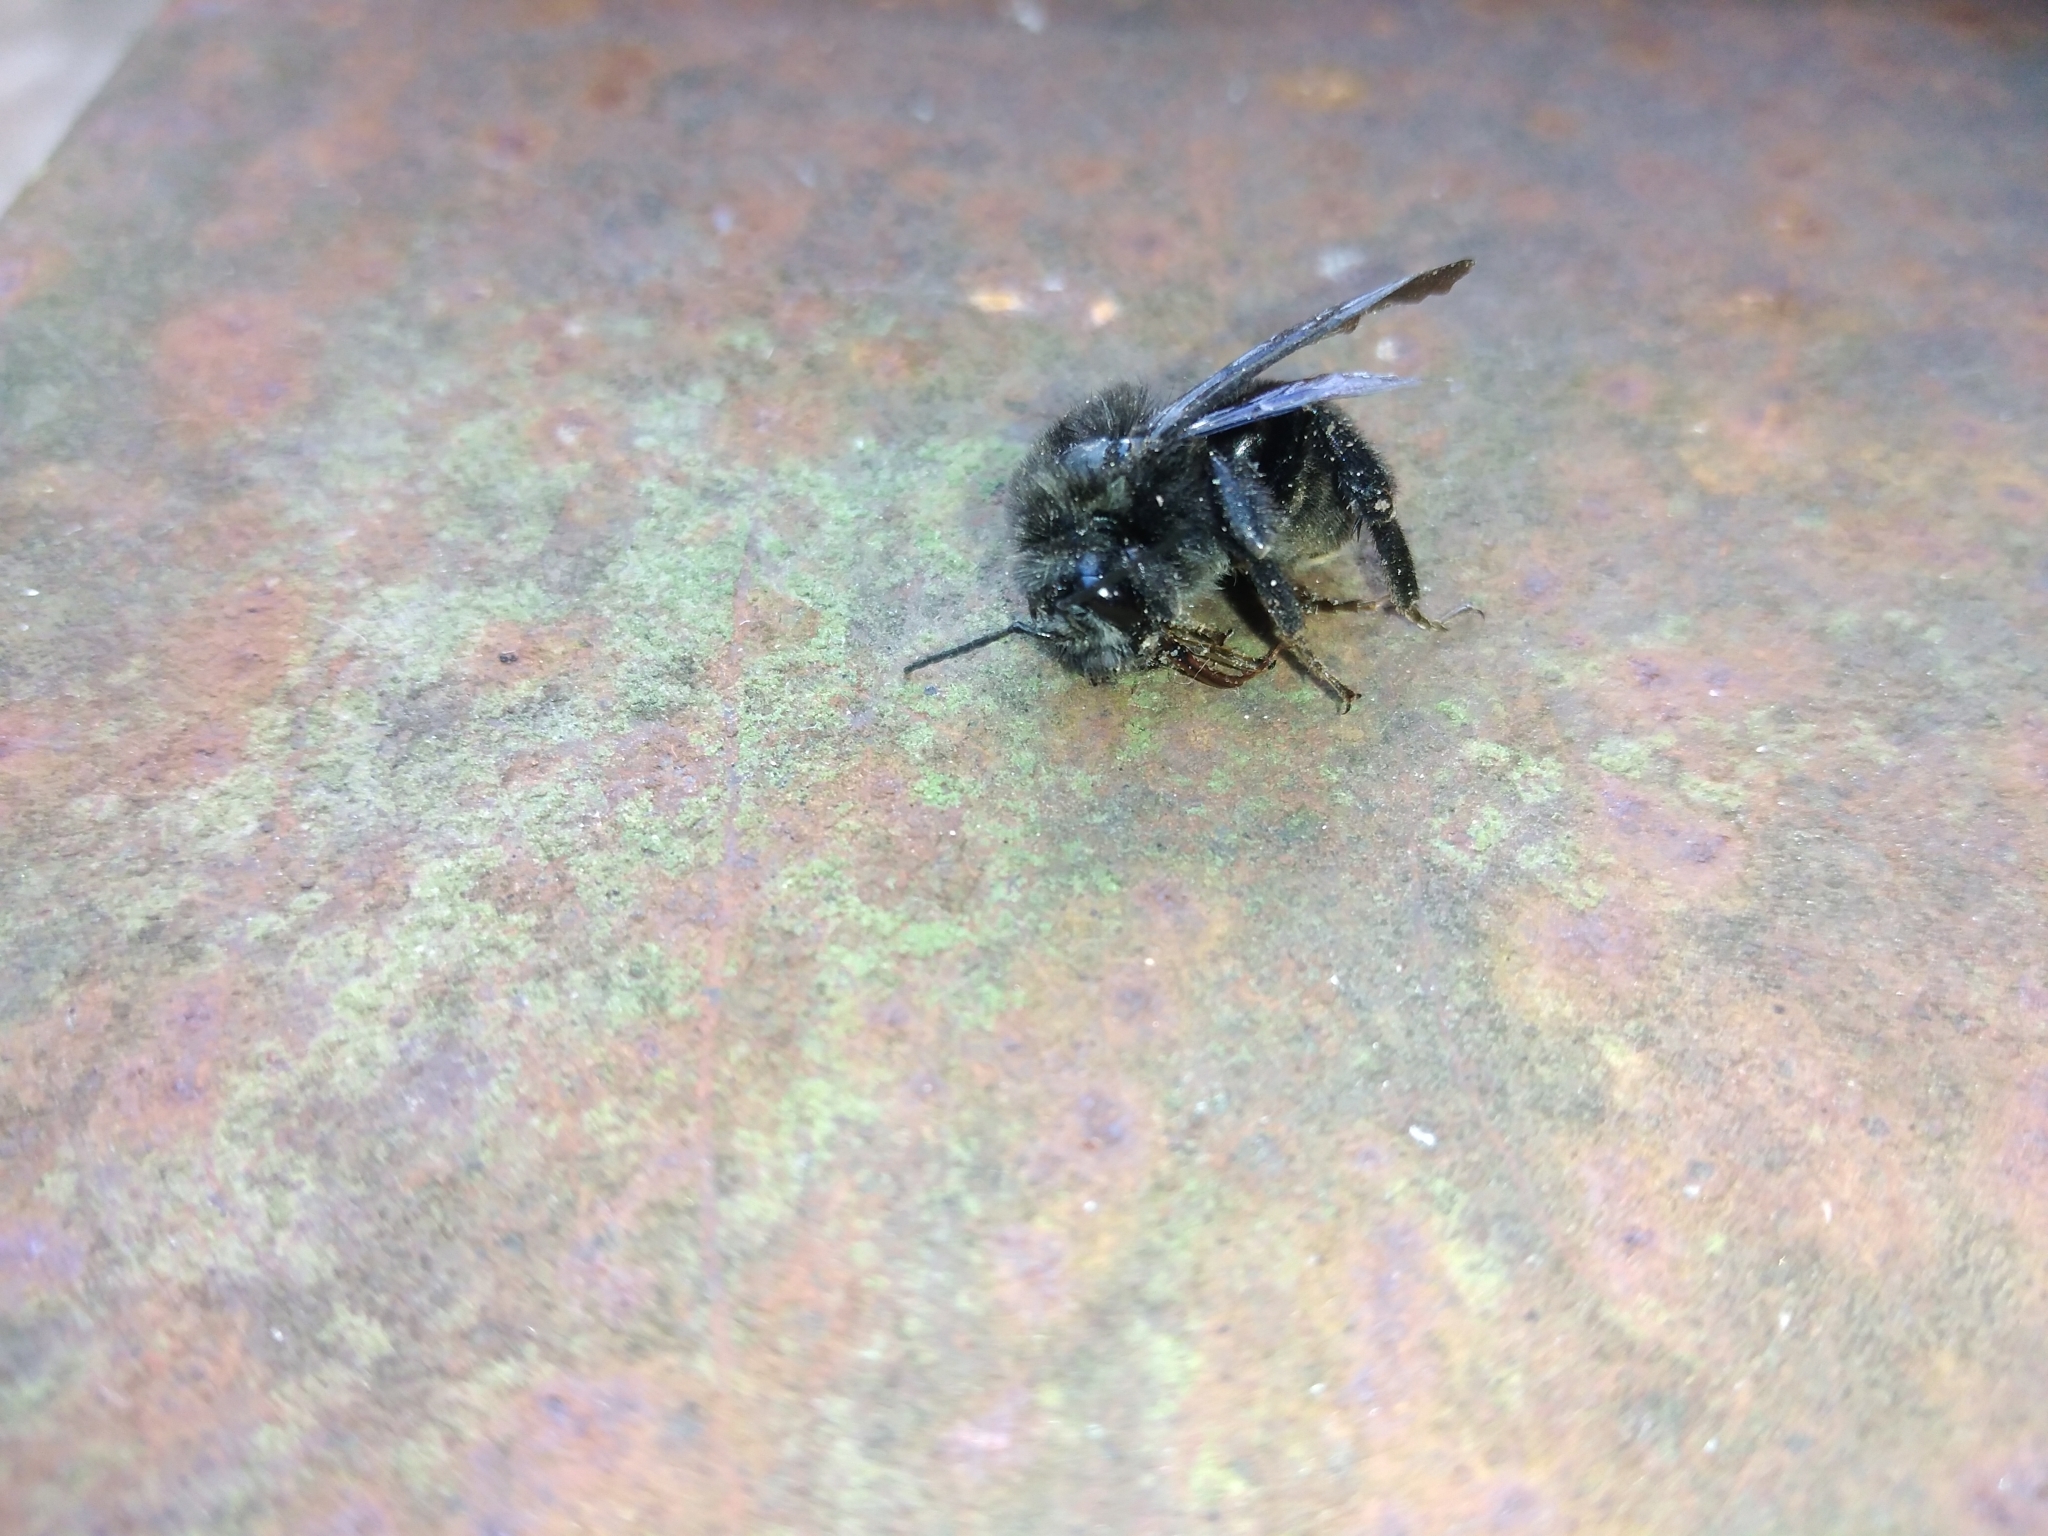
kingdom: Animalia
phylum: Arthropoda
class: Insecta
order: Hymenoptera
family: Apidae
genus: Bombus
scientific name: Bombus pauloensis
